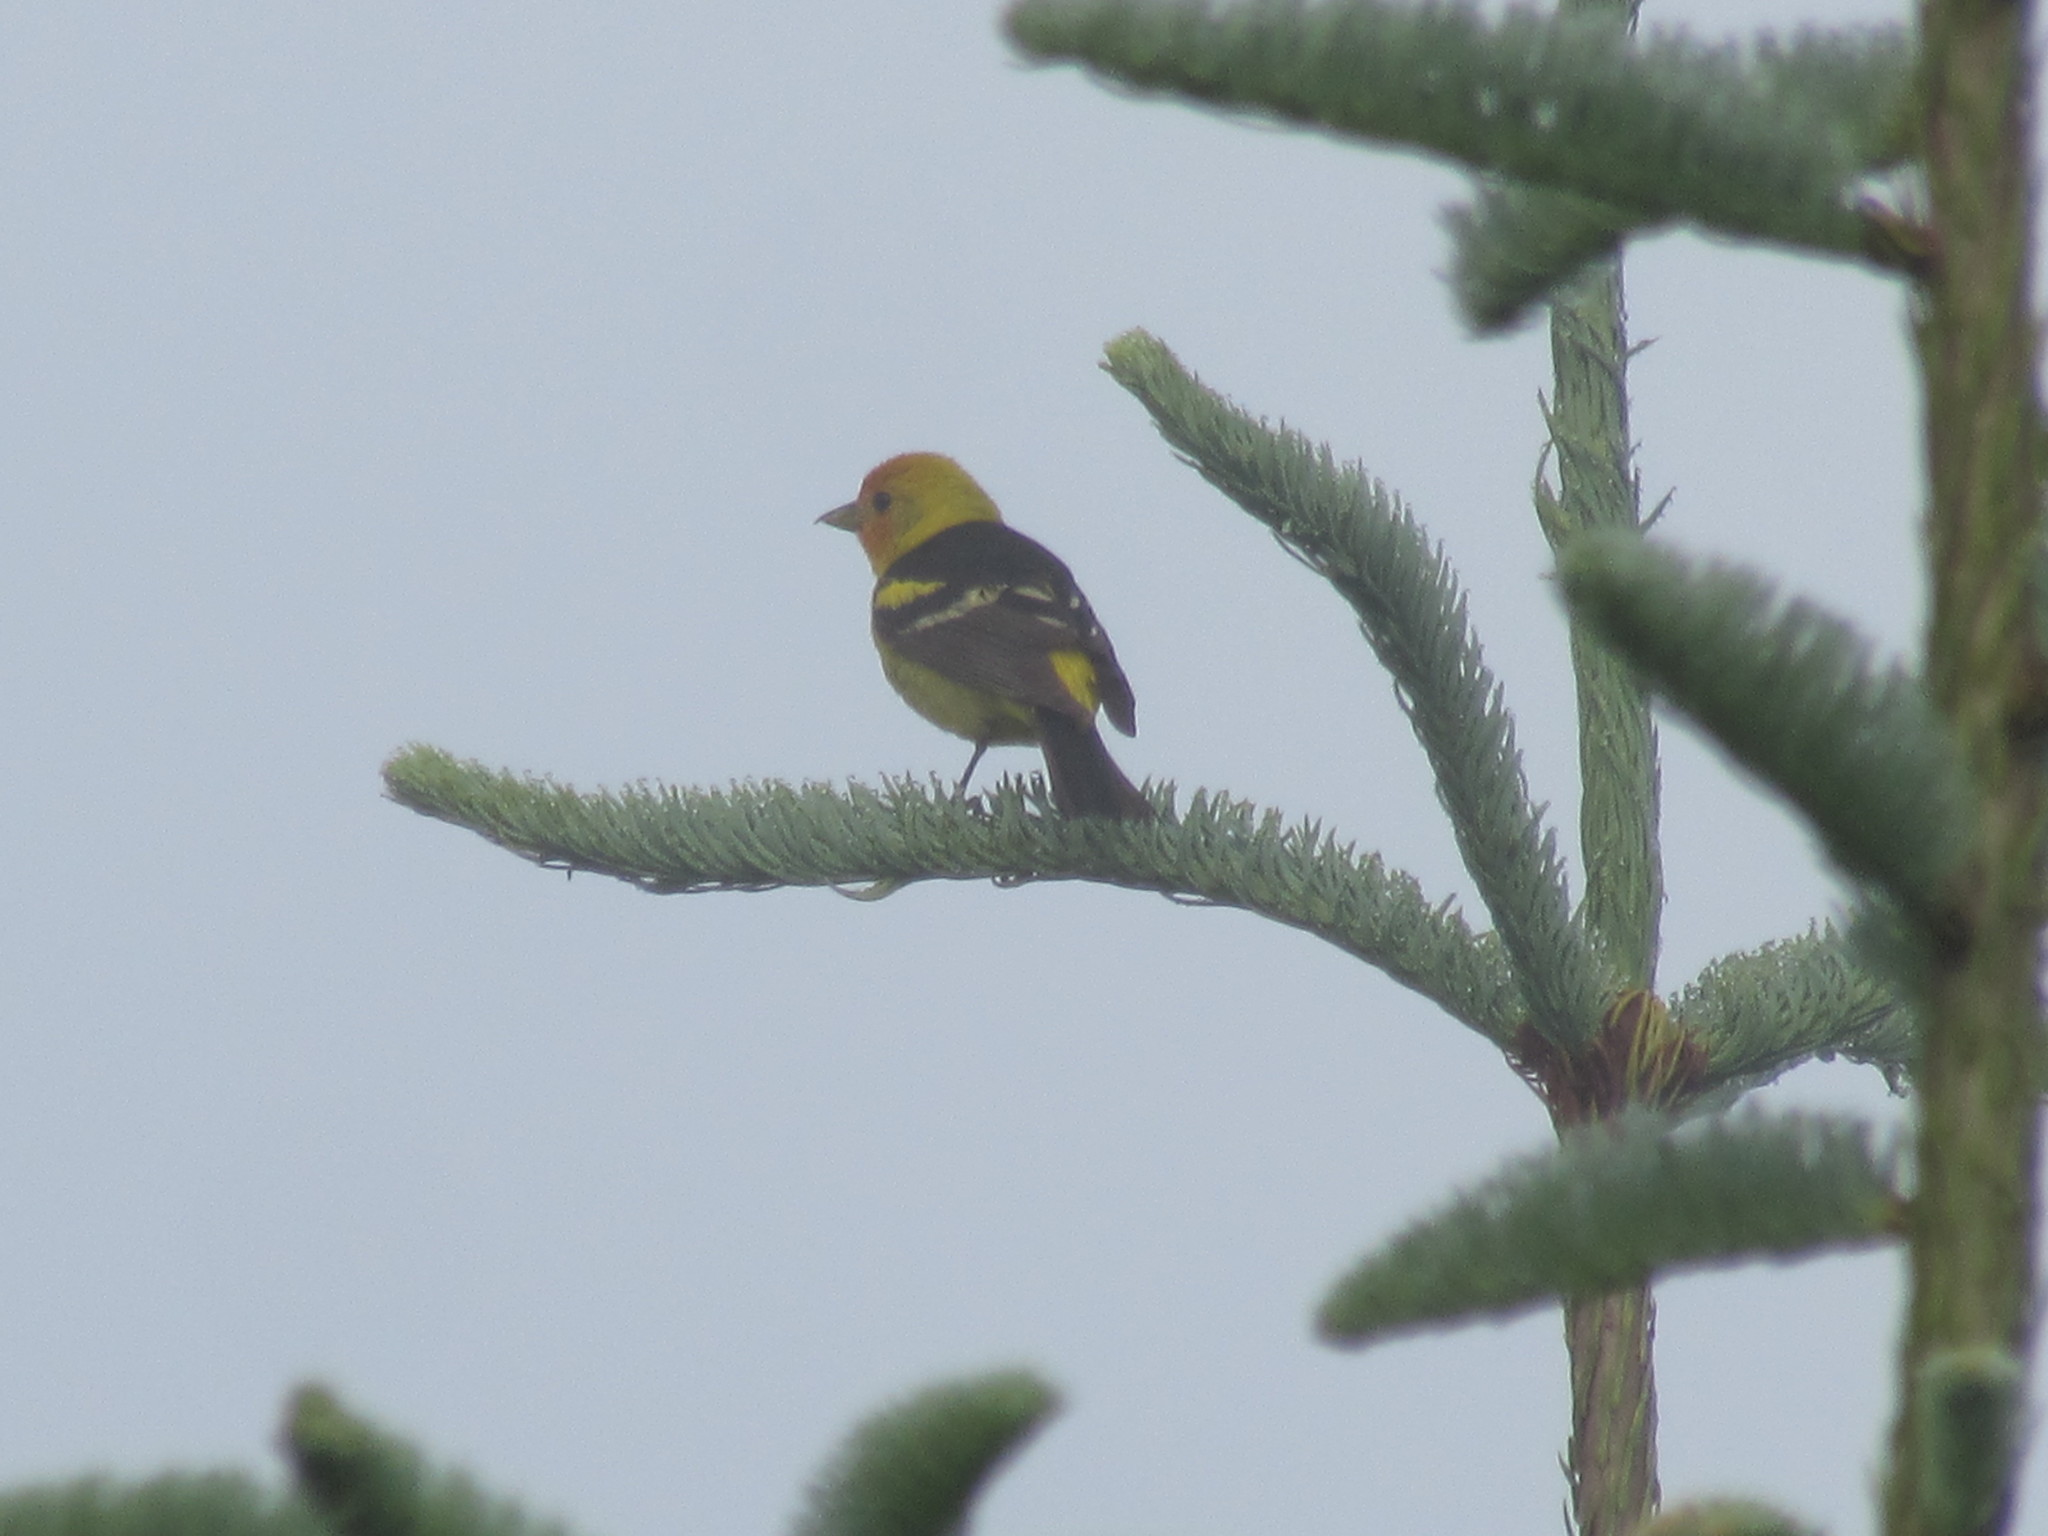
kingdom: Animalia
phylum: Chordata
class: Aves
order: Passeriformes
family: Cardinalidae
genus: Piranga
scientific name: Piranga ludoviciana
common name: Western tanager
